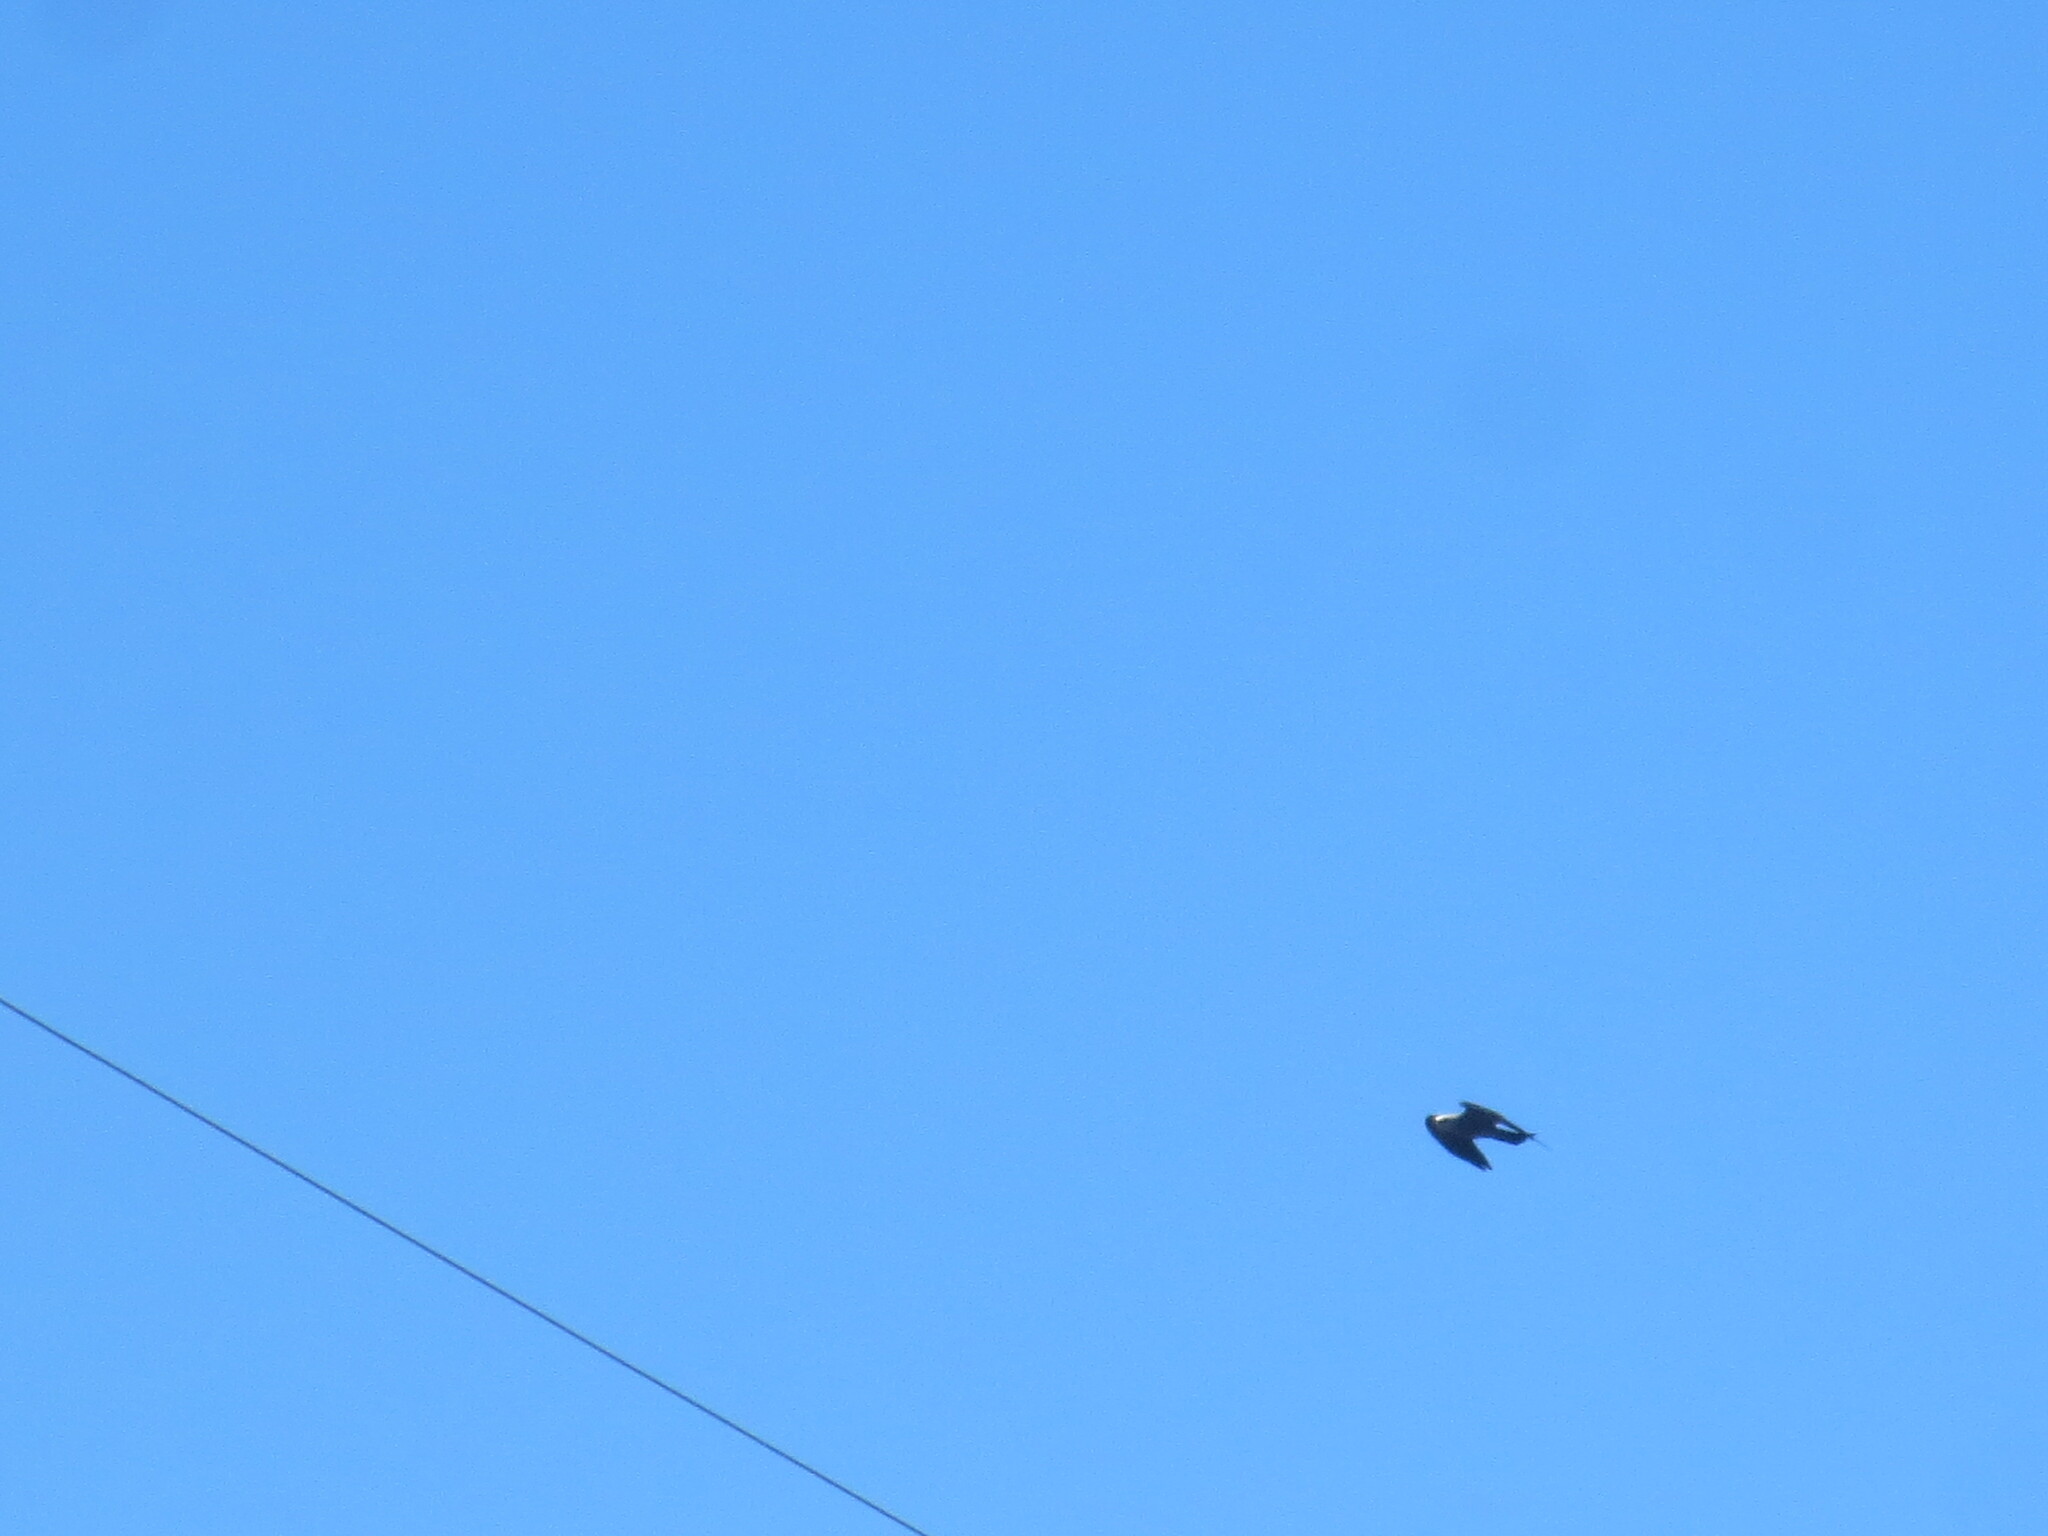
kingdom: Animalia
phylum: Chordata
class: Aves
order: Accipitriformes
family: Accipitridae
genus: Ictinia
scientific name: Ictinia mississippiensis
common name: Mississippi kite
